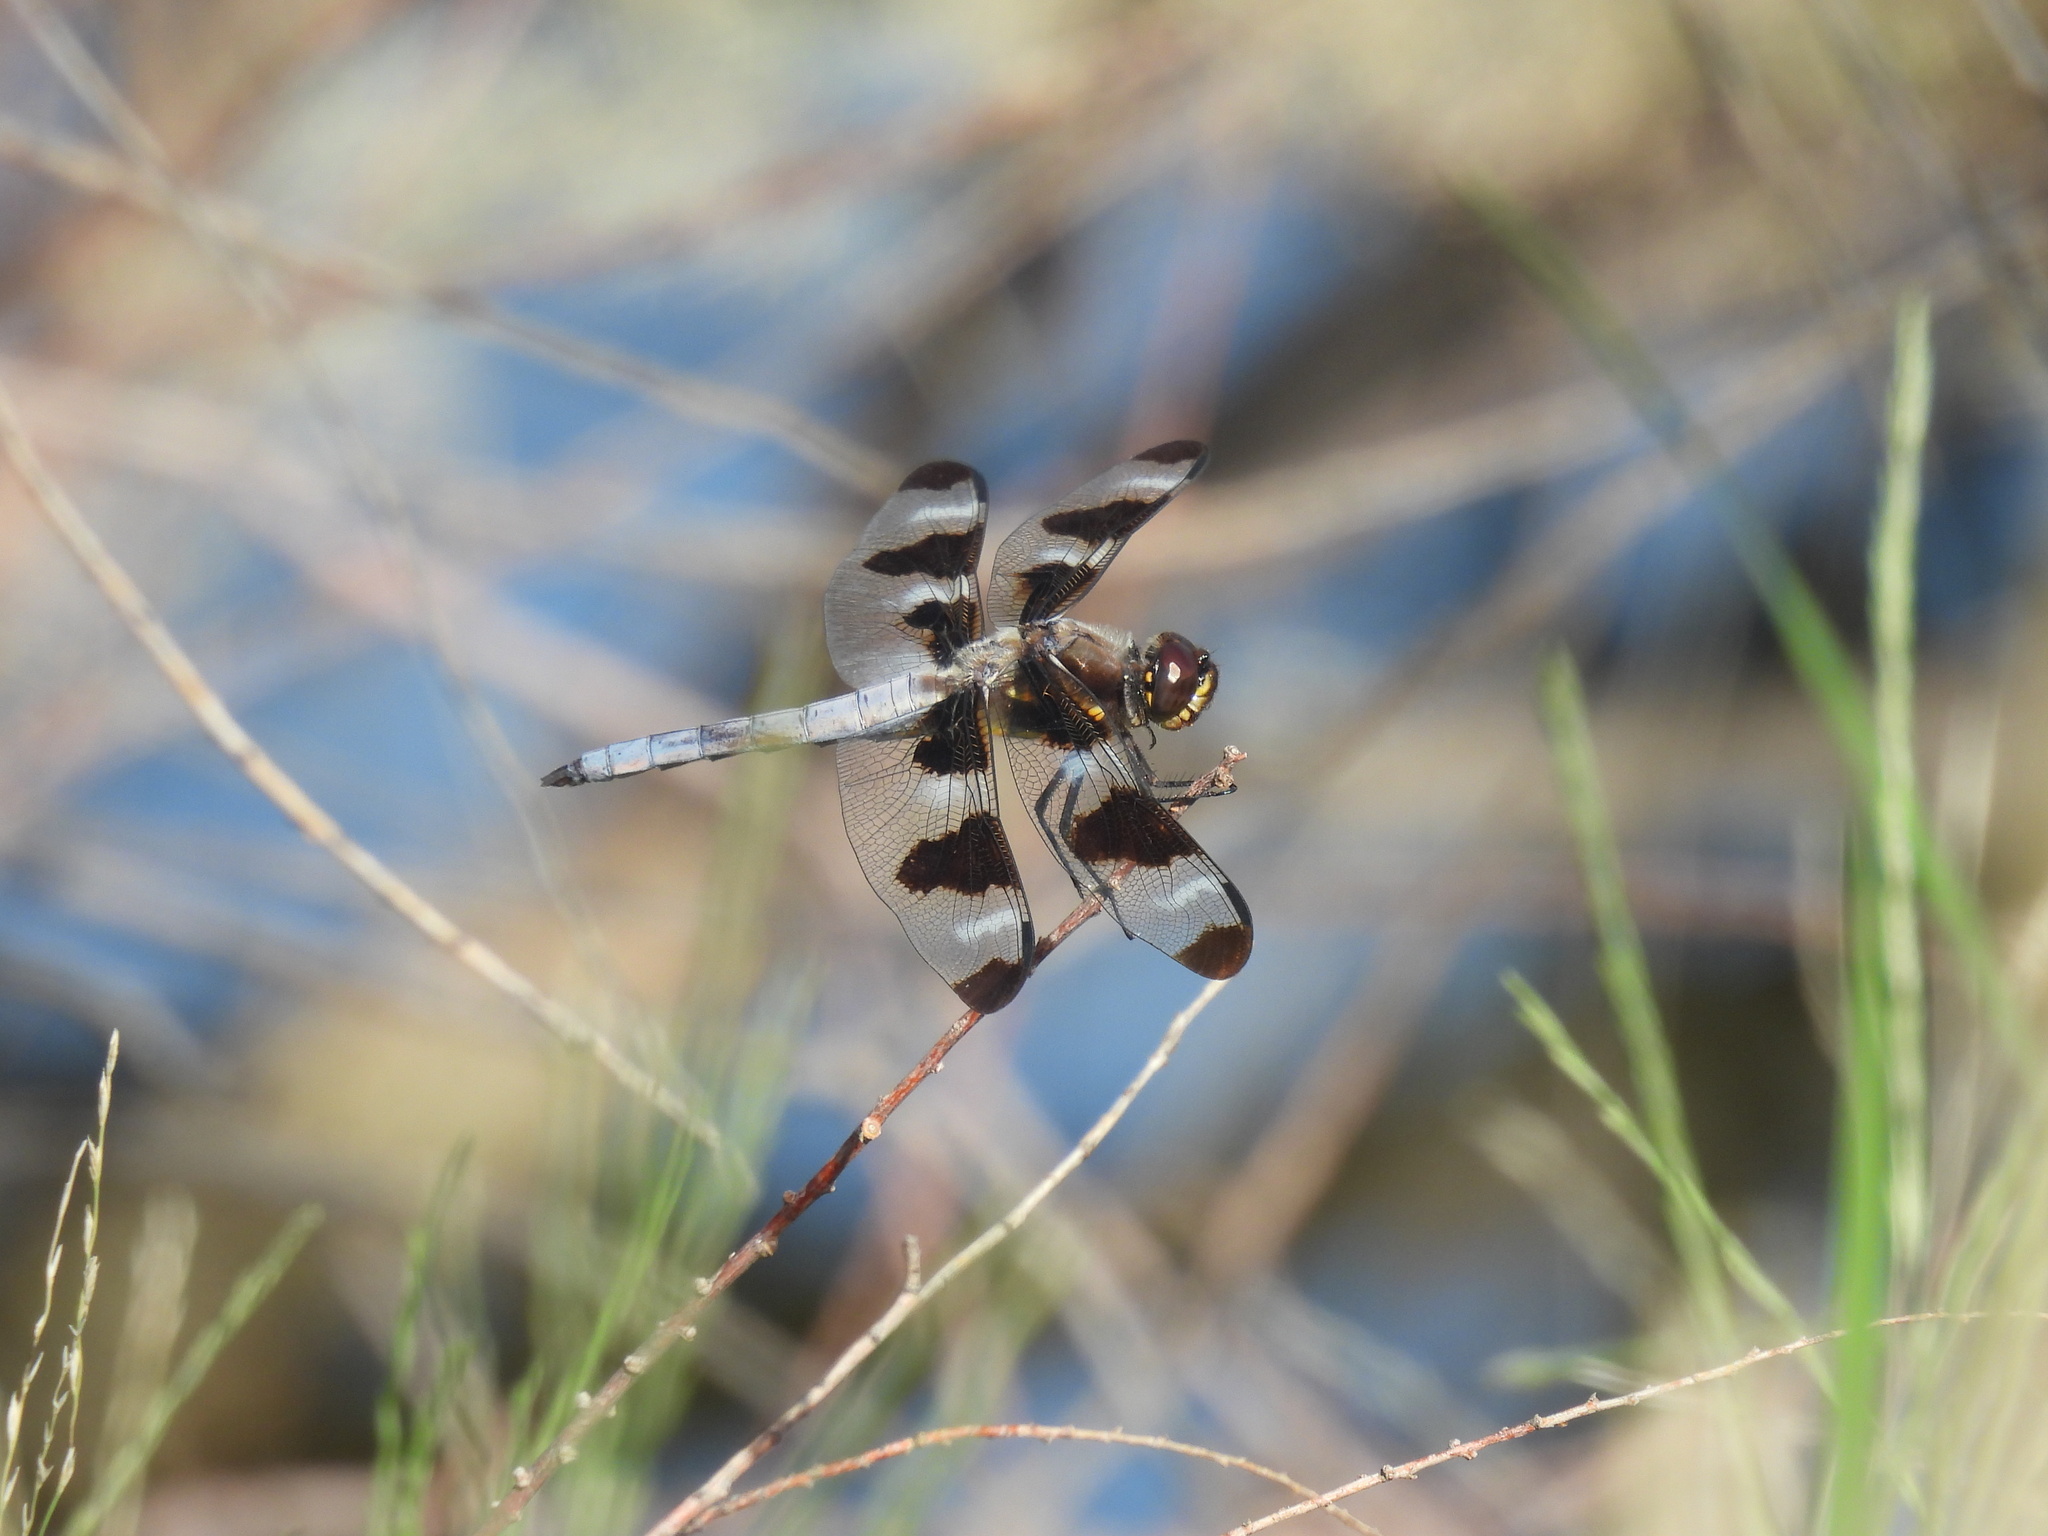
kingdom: Animalia
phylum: Arthropoda
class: Insecta
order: Odonata
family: Libellulidae
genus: Libellula
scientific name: Libellula pulchella
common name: Twelve-spotted skimmer
